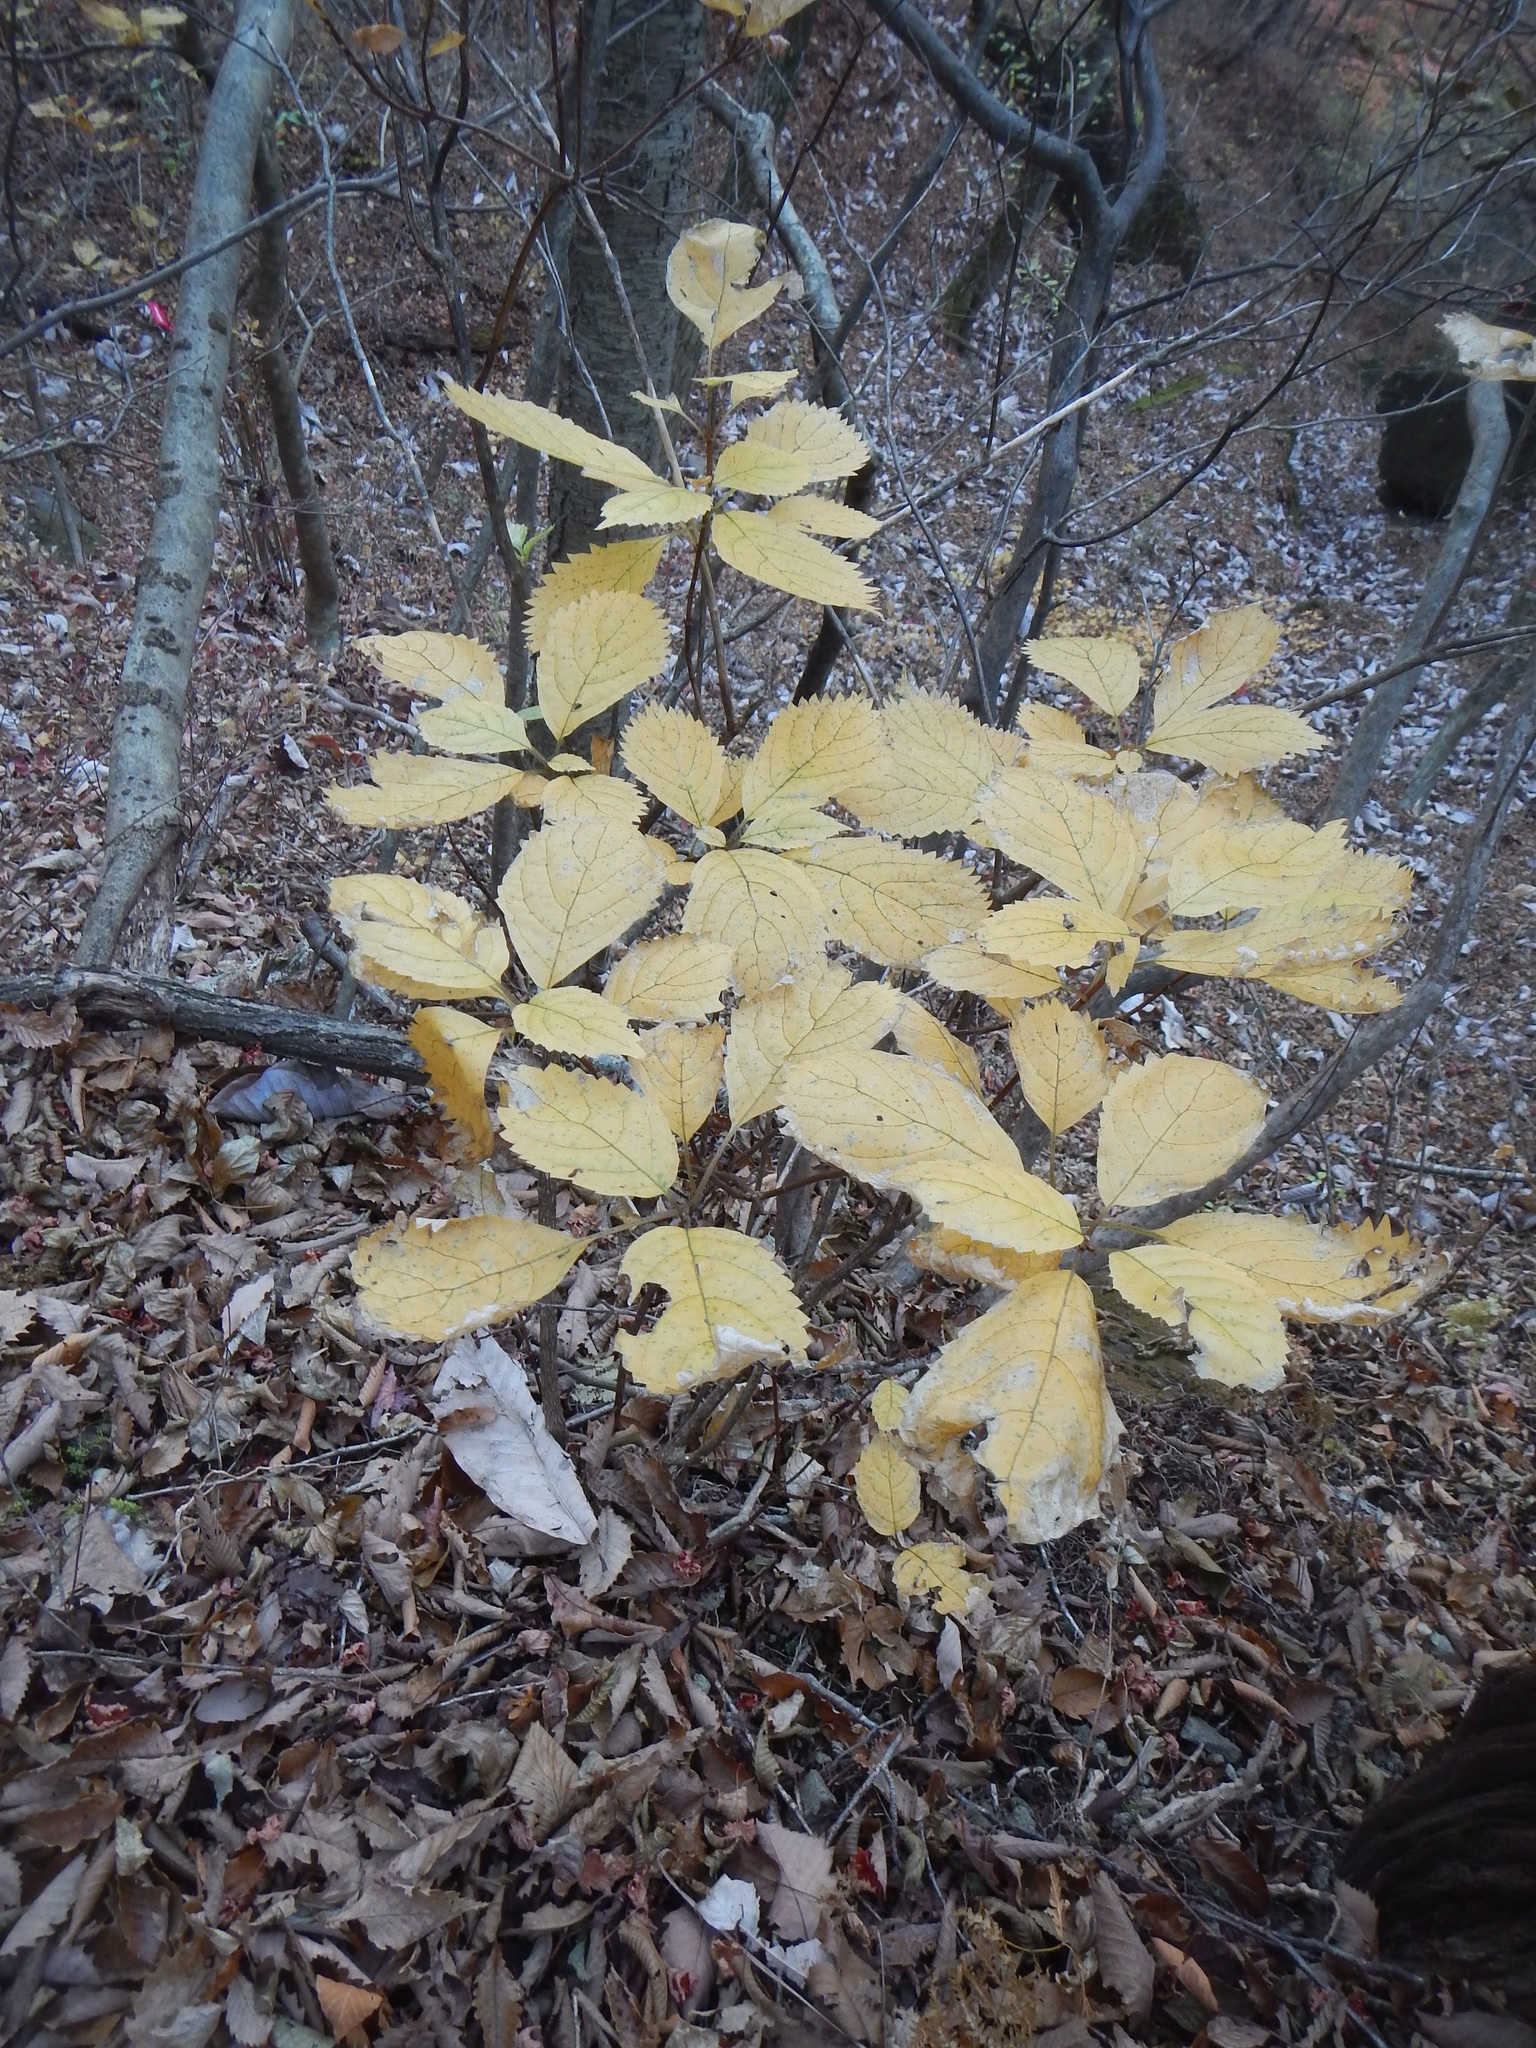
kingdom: Plantae
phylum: Tracheophyta
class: Magnoliopsida
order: Cornales
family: Hydrangeaceae
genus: Hydrangea
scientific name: Hydrangea hirta
